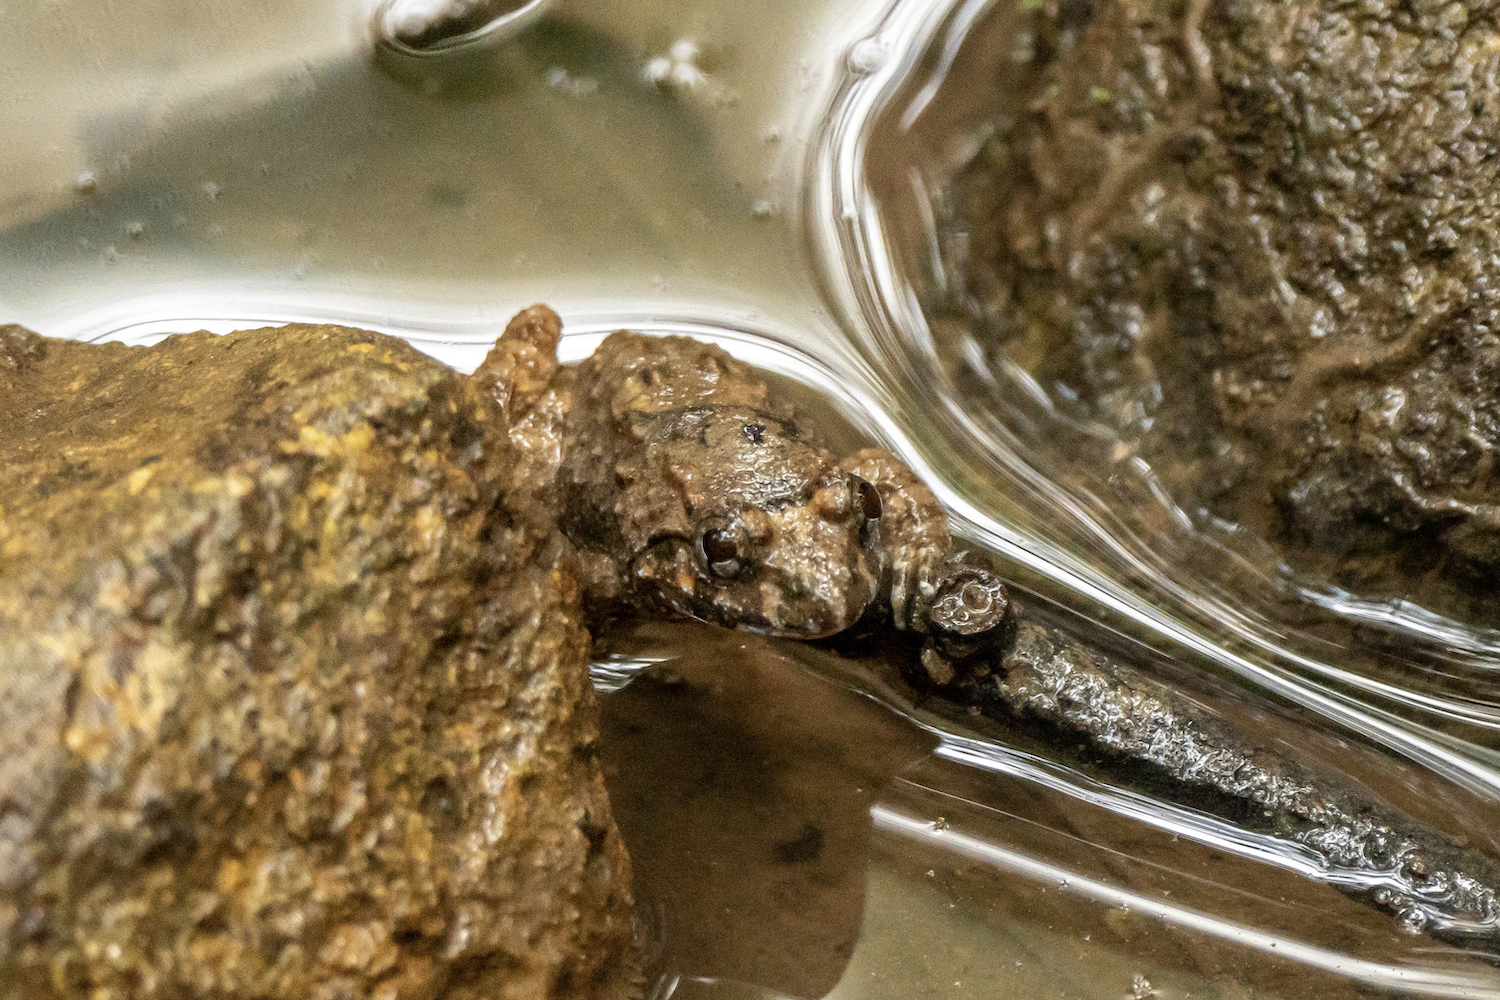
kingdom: Animalia
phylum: Chordata
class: Amphibia
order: Anura
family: Dicroglossidae
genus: Limnonectes
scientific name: Limnonectes fujianensis
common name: Fujian large-headed frog
